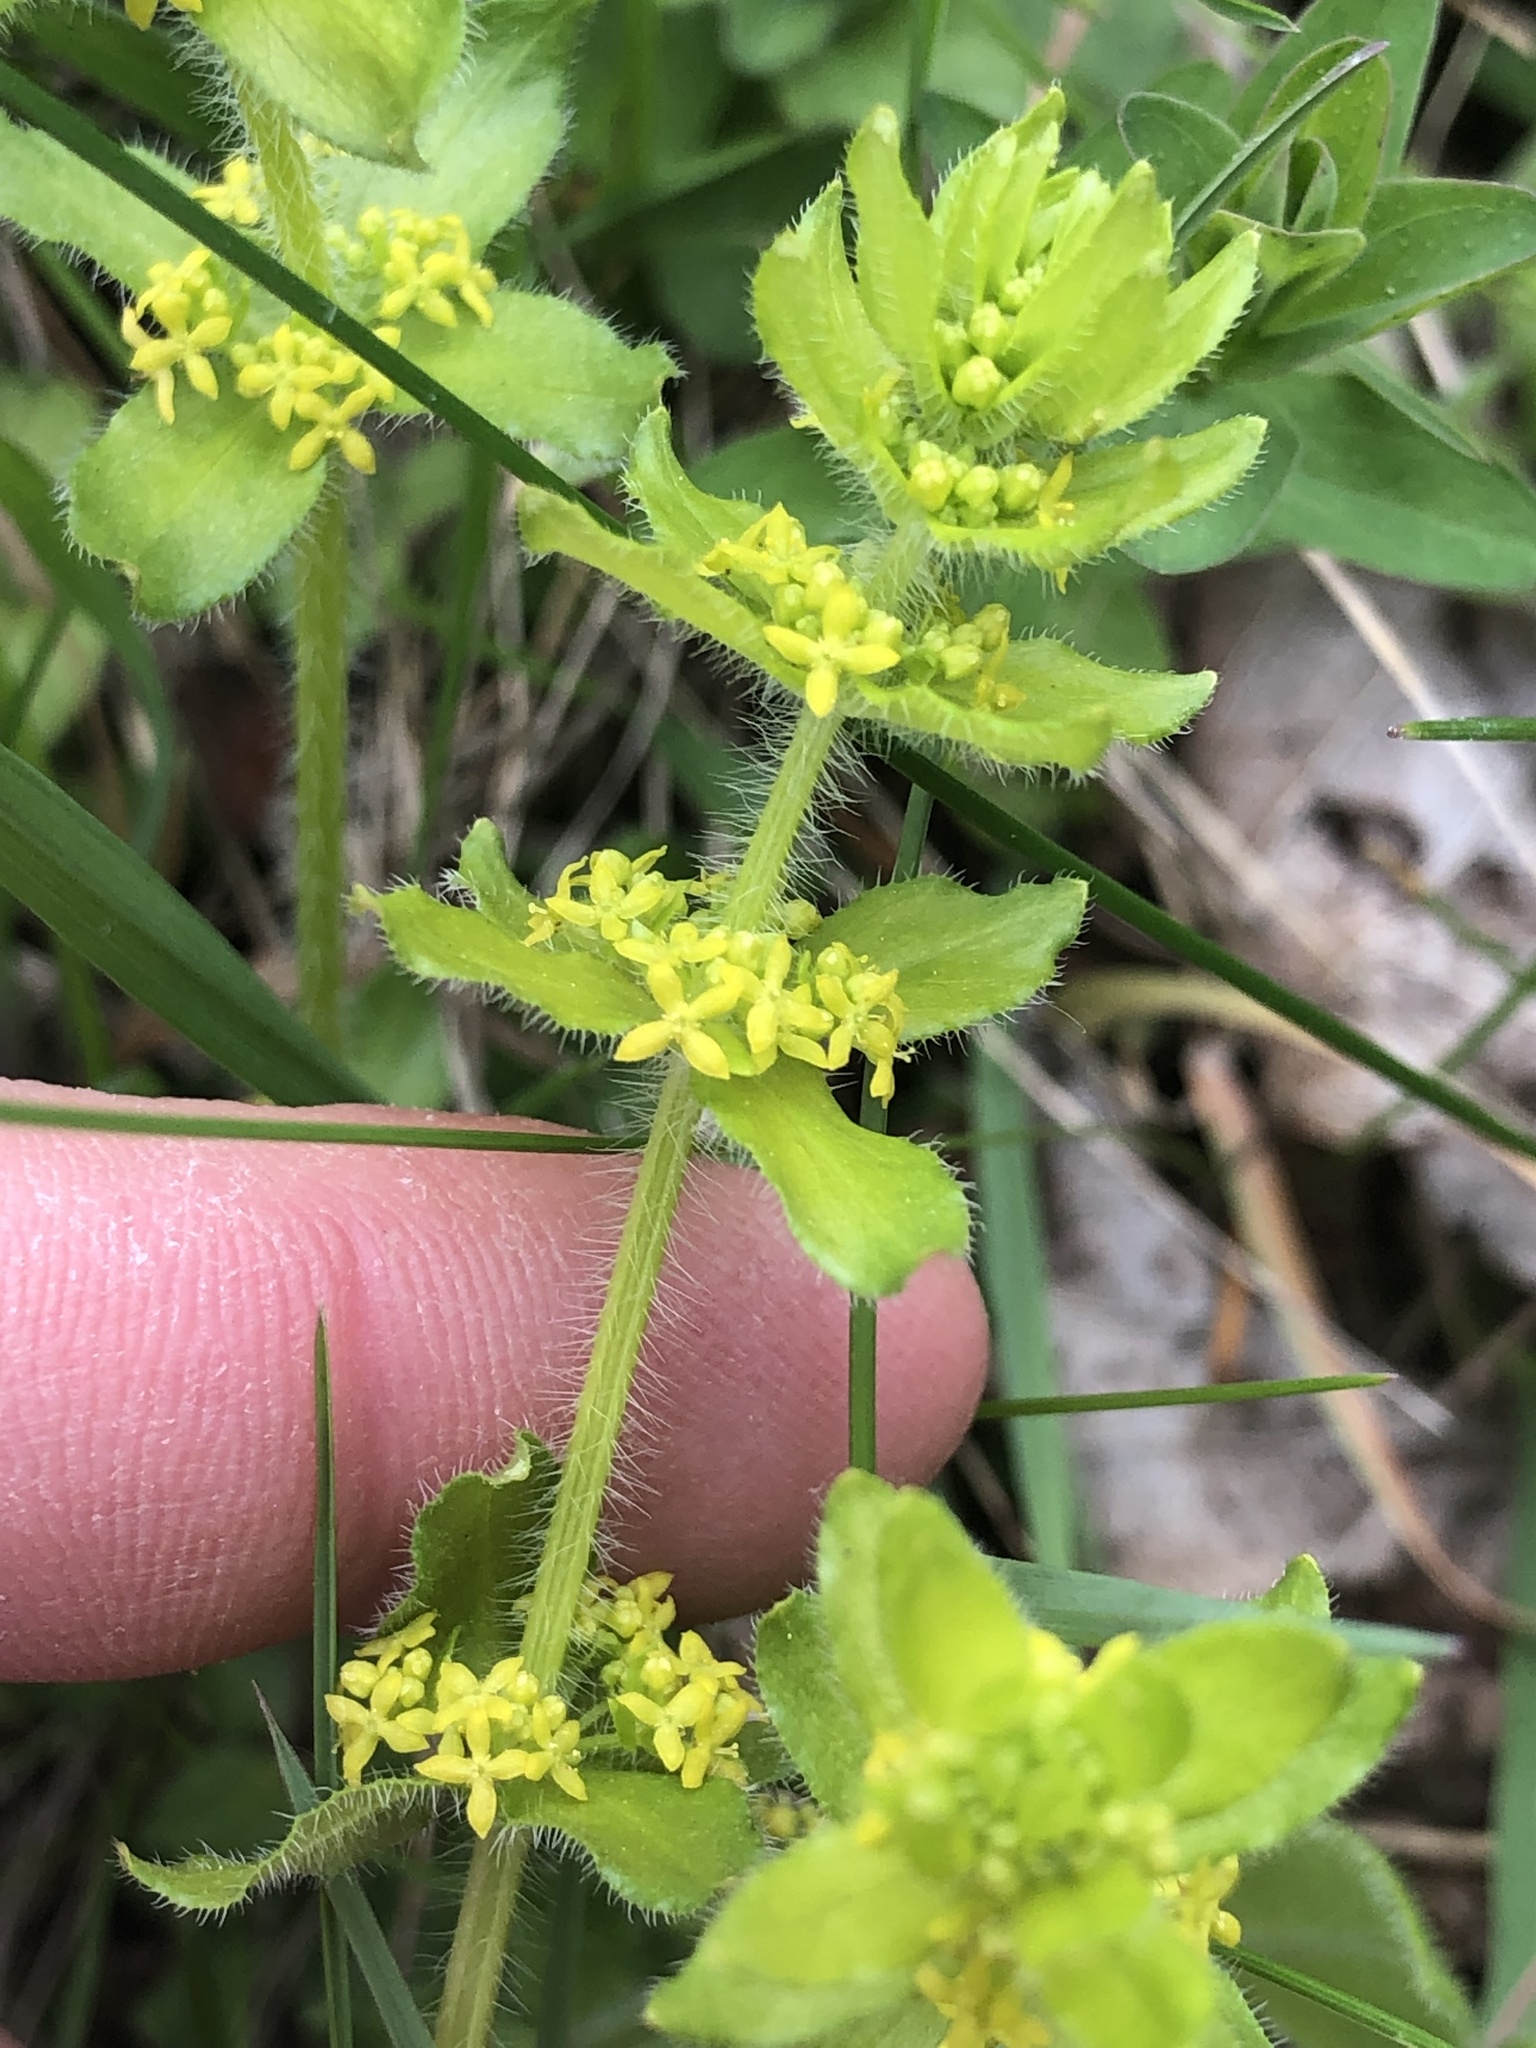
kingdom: Plantae
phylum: Tracheophyta
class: Magnoliopsida
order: Gentianales
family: Rubiaceae
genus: Cruciata
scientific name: Cruciata laevipes
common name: Crosswort
